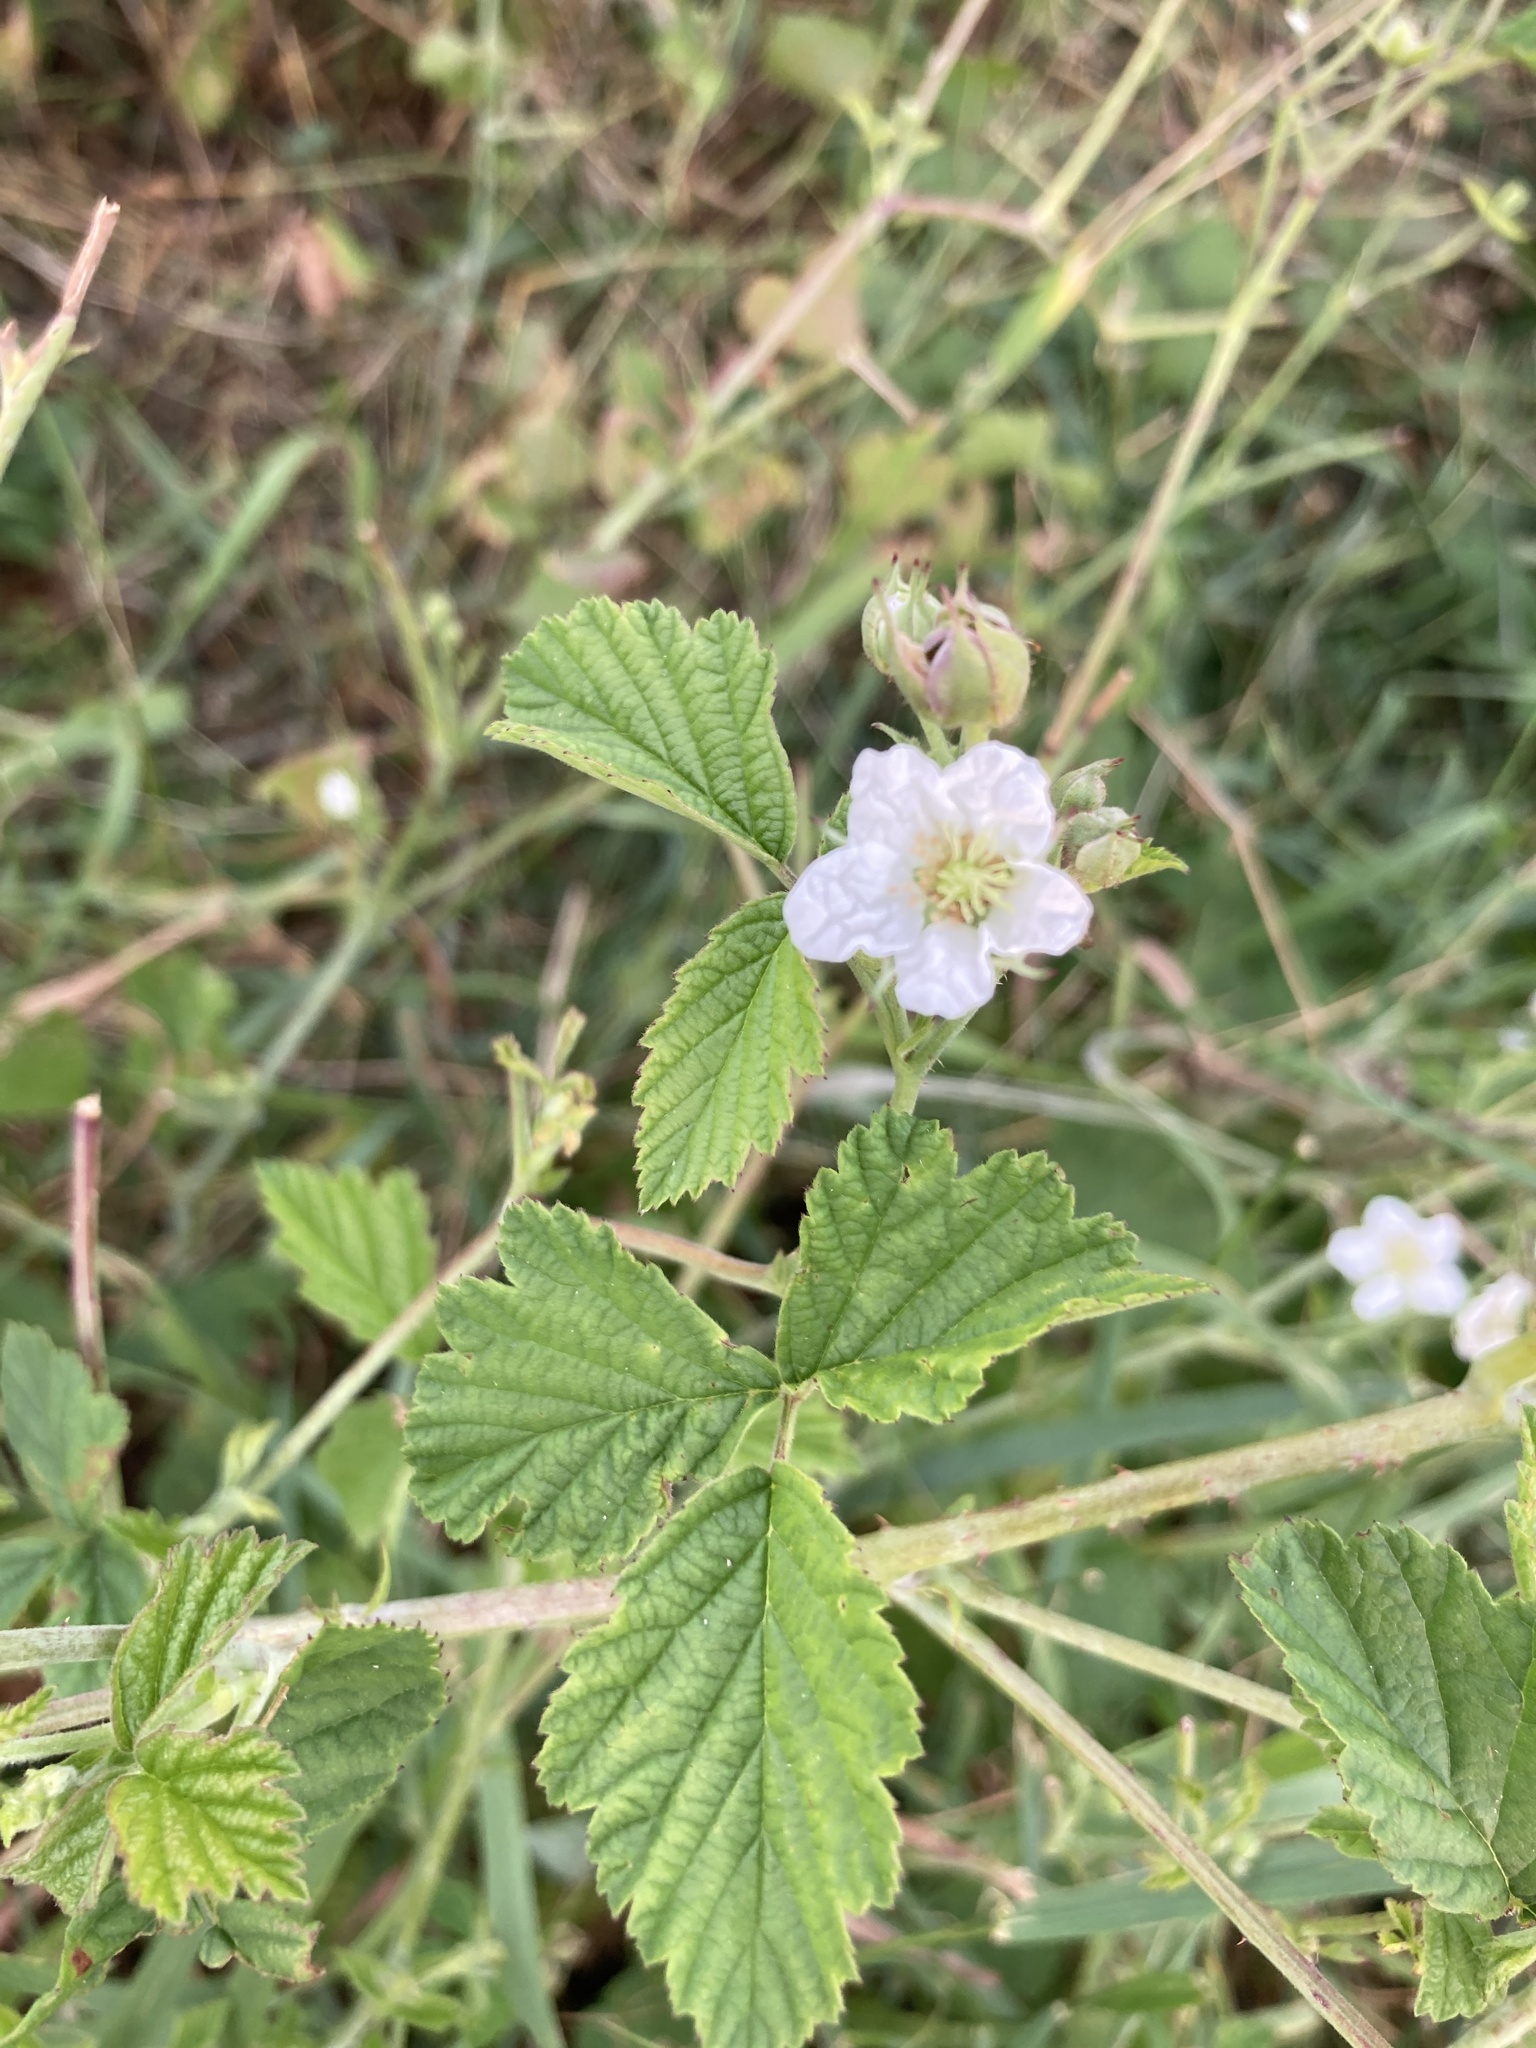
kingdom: Plantae
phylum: Tracheophyta
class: Magnoliopsida
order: Rosales
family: Rosaceae
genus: Rubus
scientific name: Rubus caesius
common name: Dewberry
